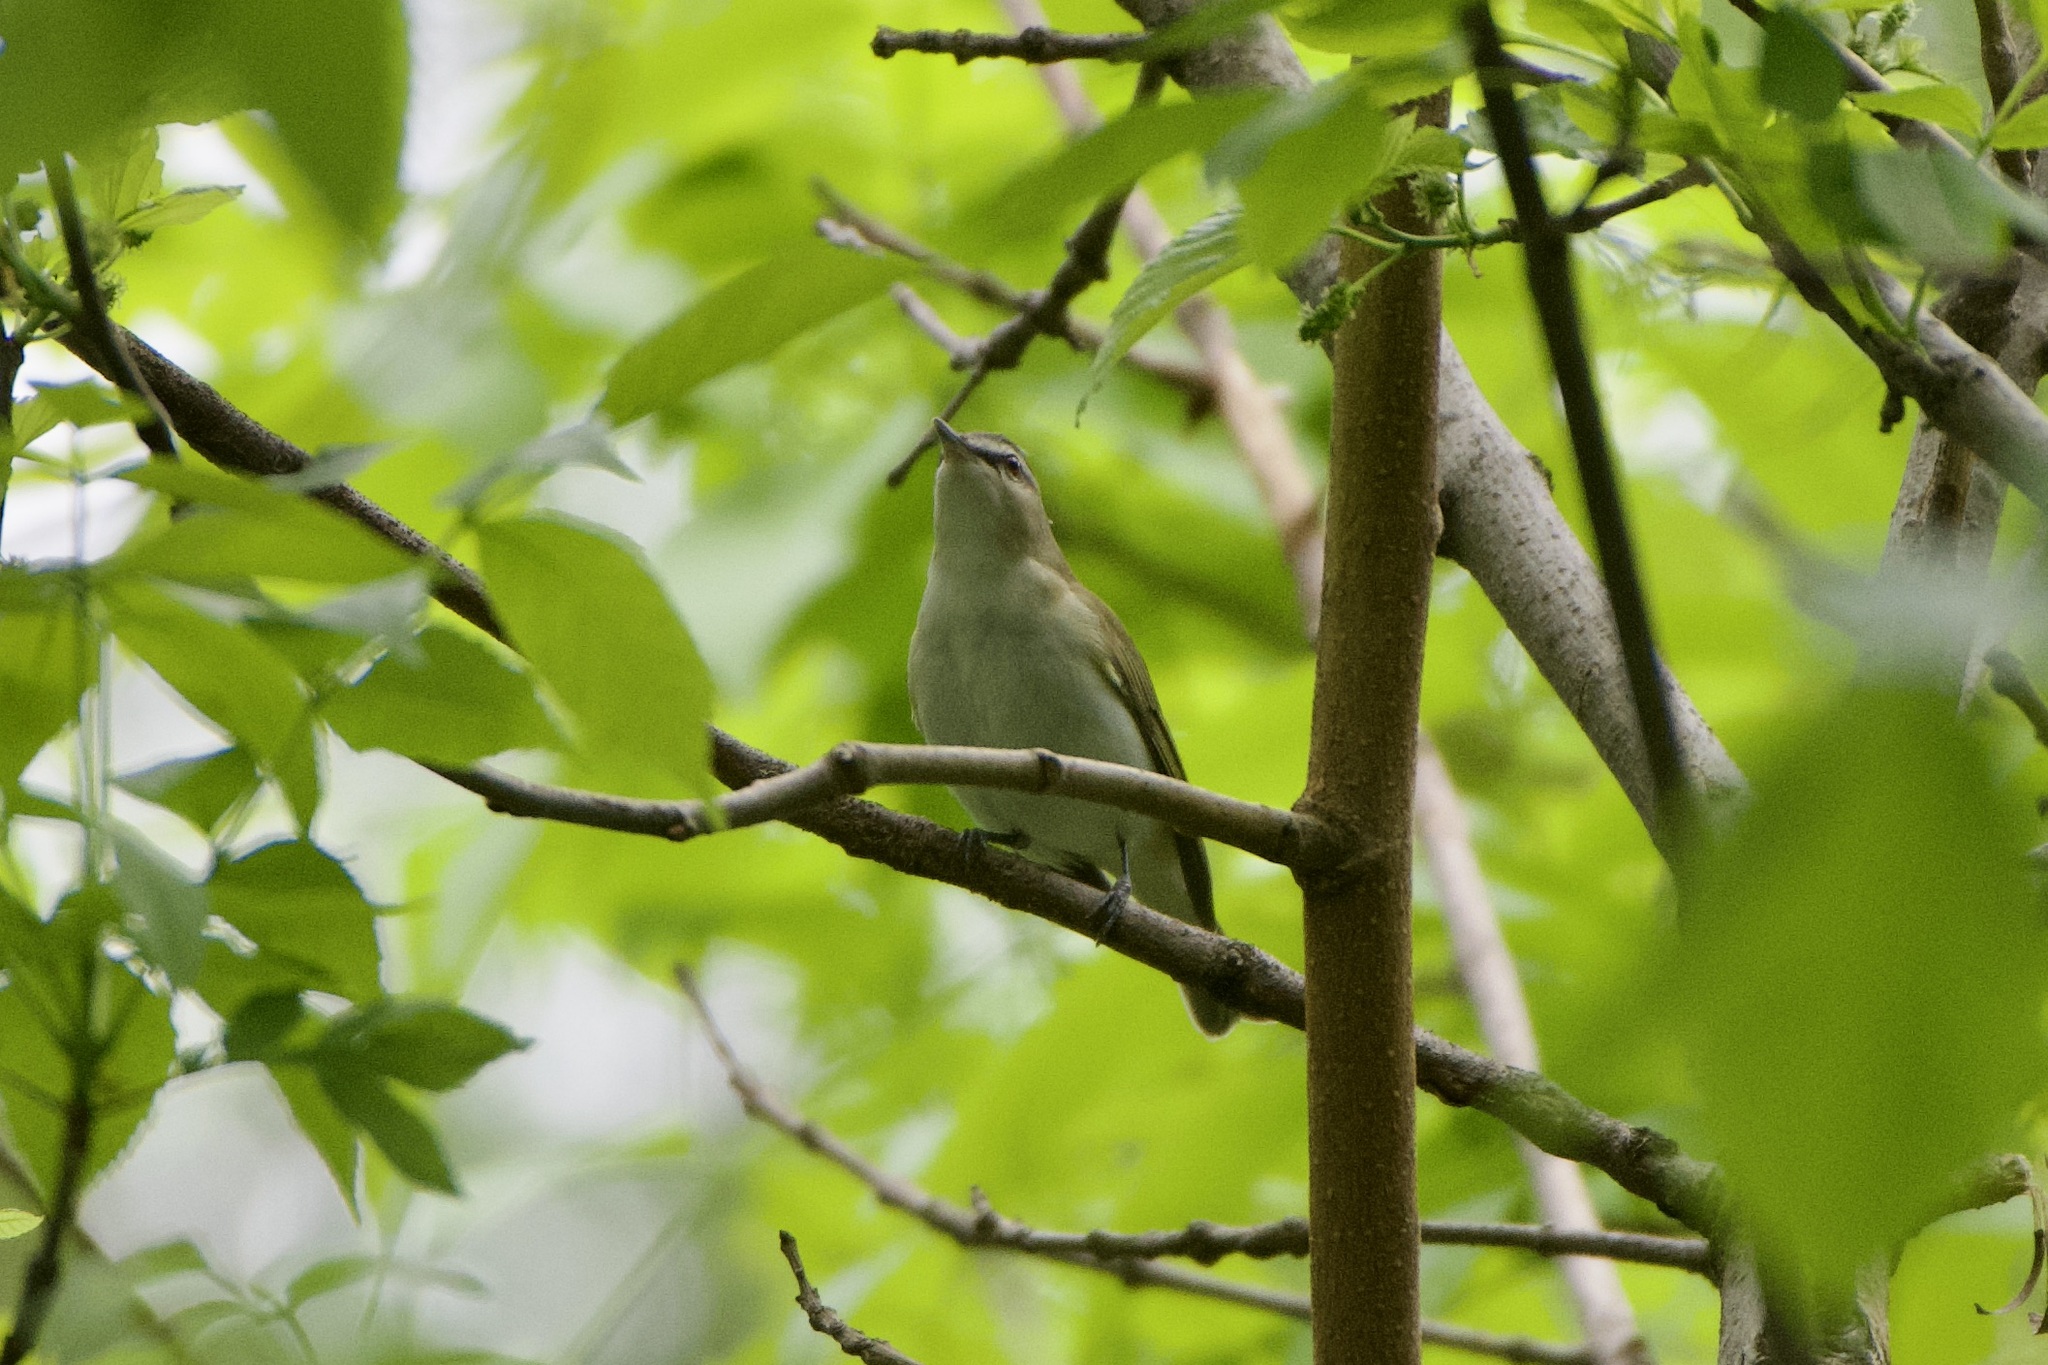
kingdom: Animalia
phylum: Chordata
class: Aves
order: Passeriformes
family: Vireonidae
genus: Vireo
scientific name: Vireo olivaceus
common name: Red-eyed vireo
